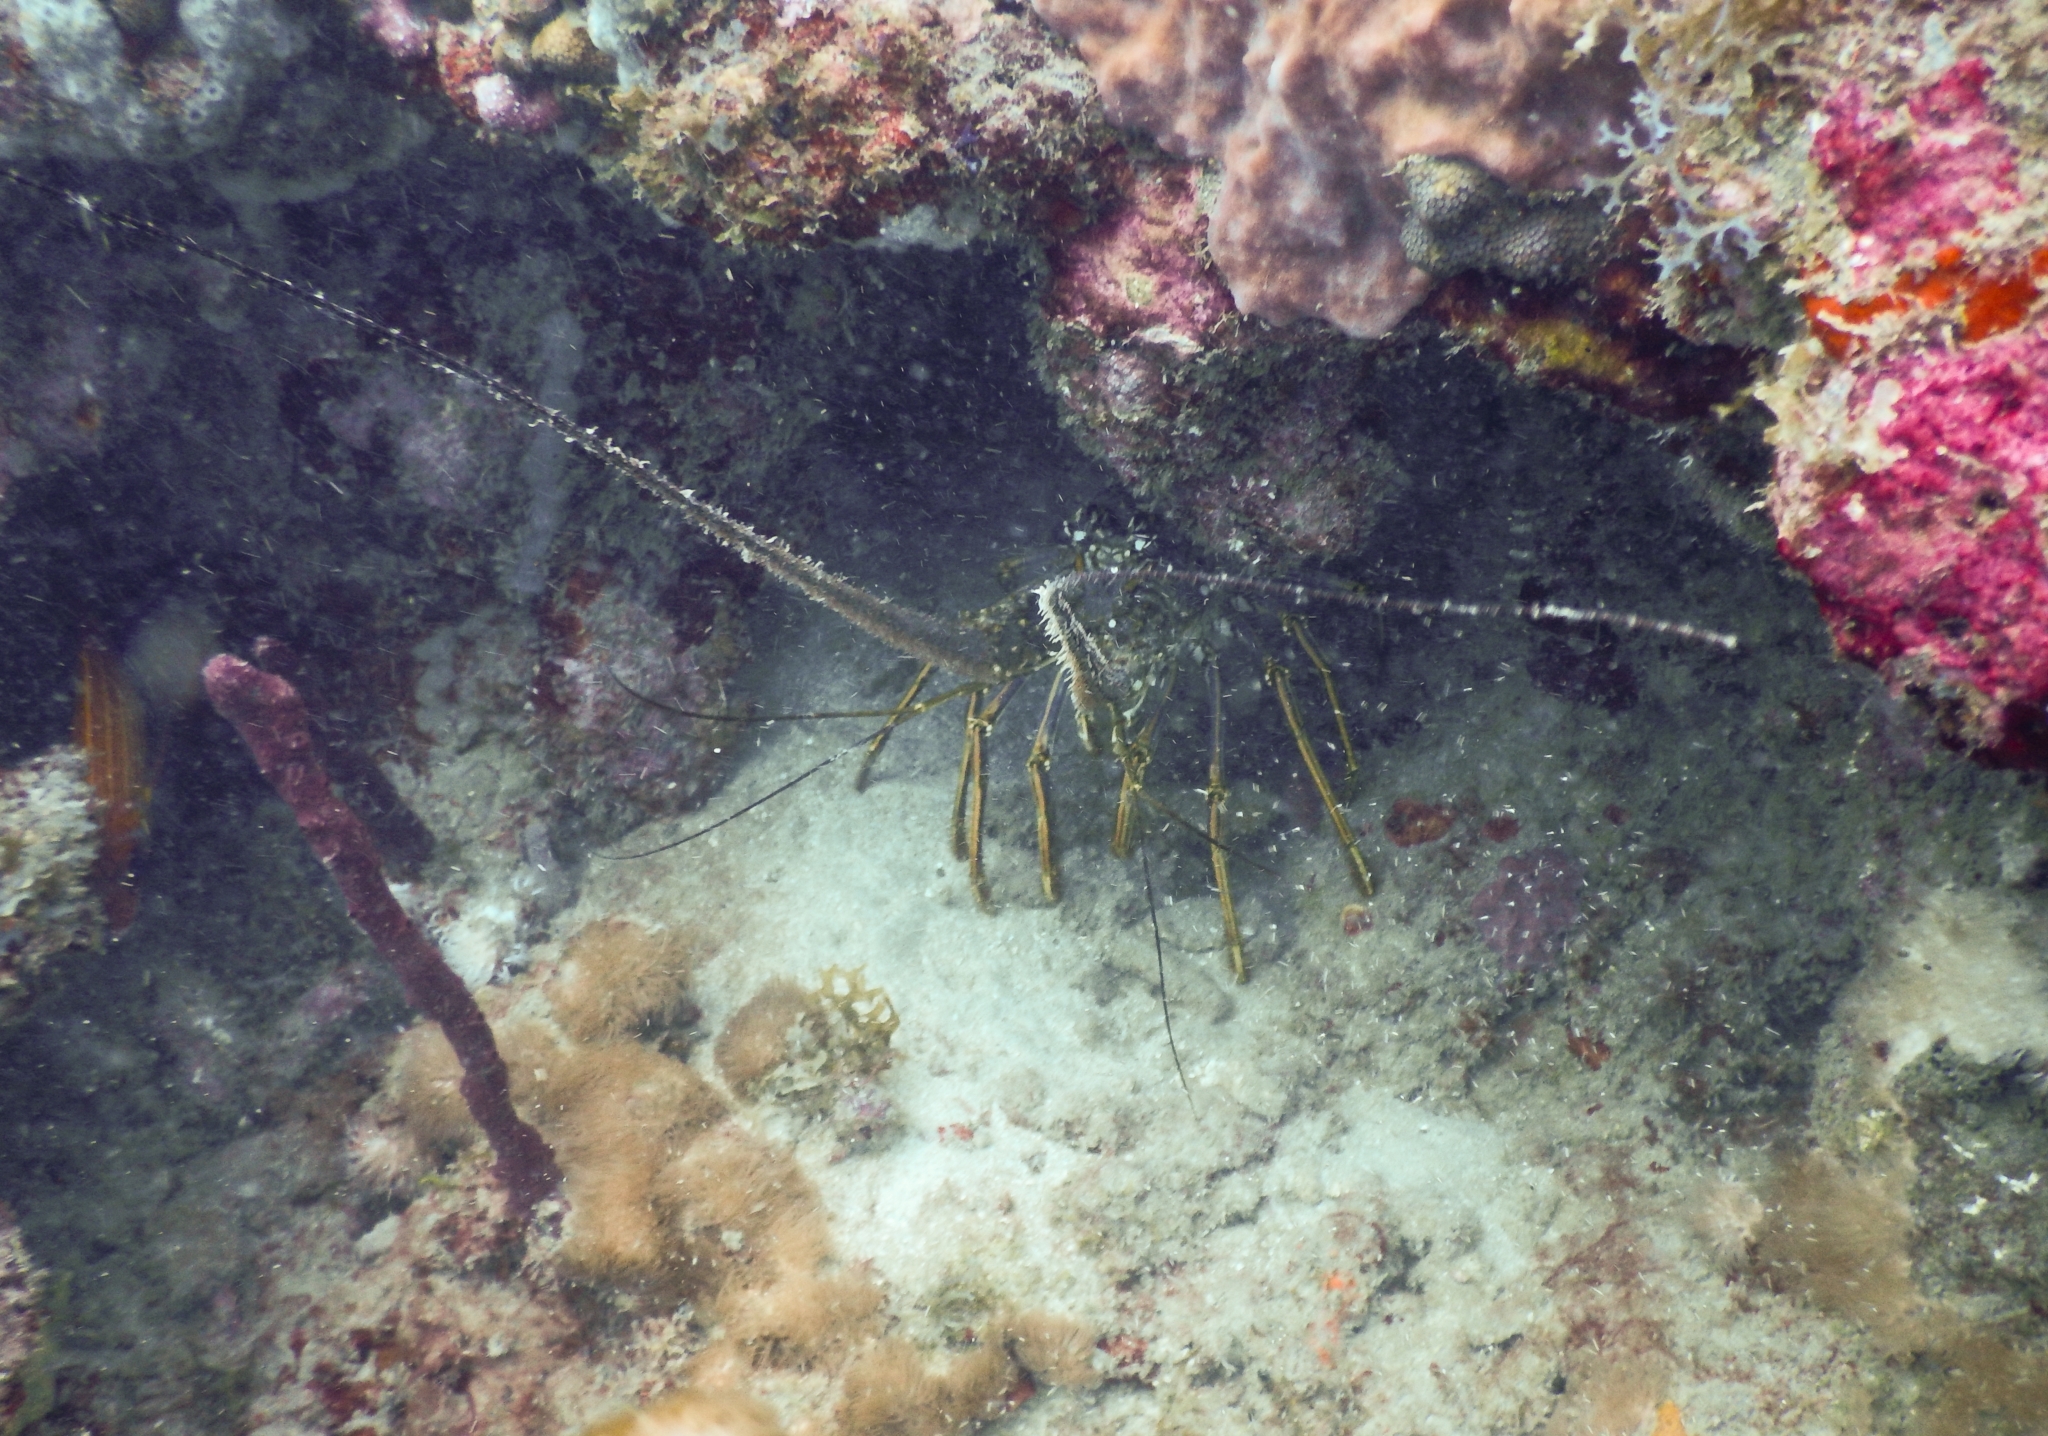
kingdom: Animalia
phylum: Arthropoda
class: Malacostraca
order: Decapoda
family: Palinuridae
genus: Panulirus
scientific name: Panulirus argus
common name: Caribbean spiny lobster
